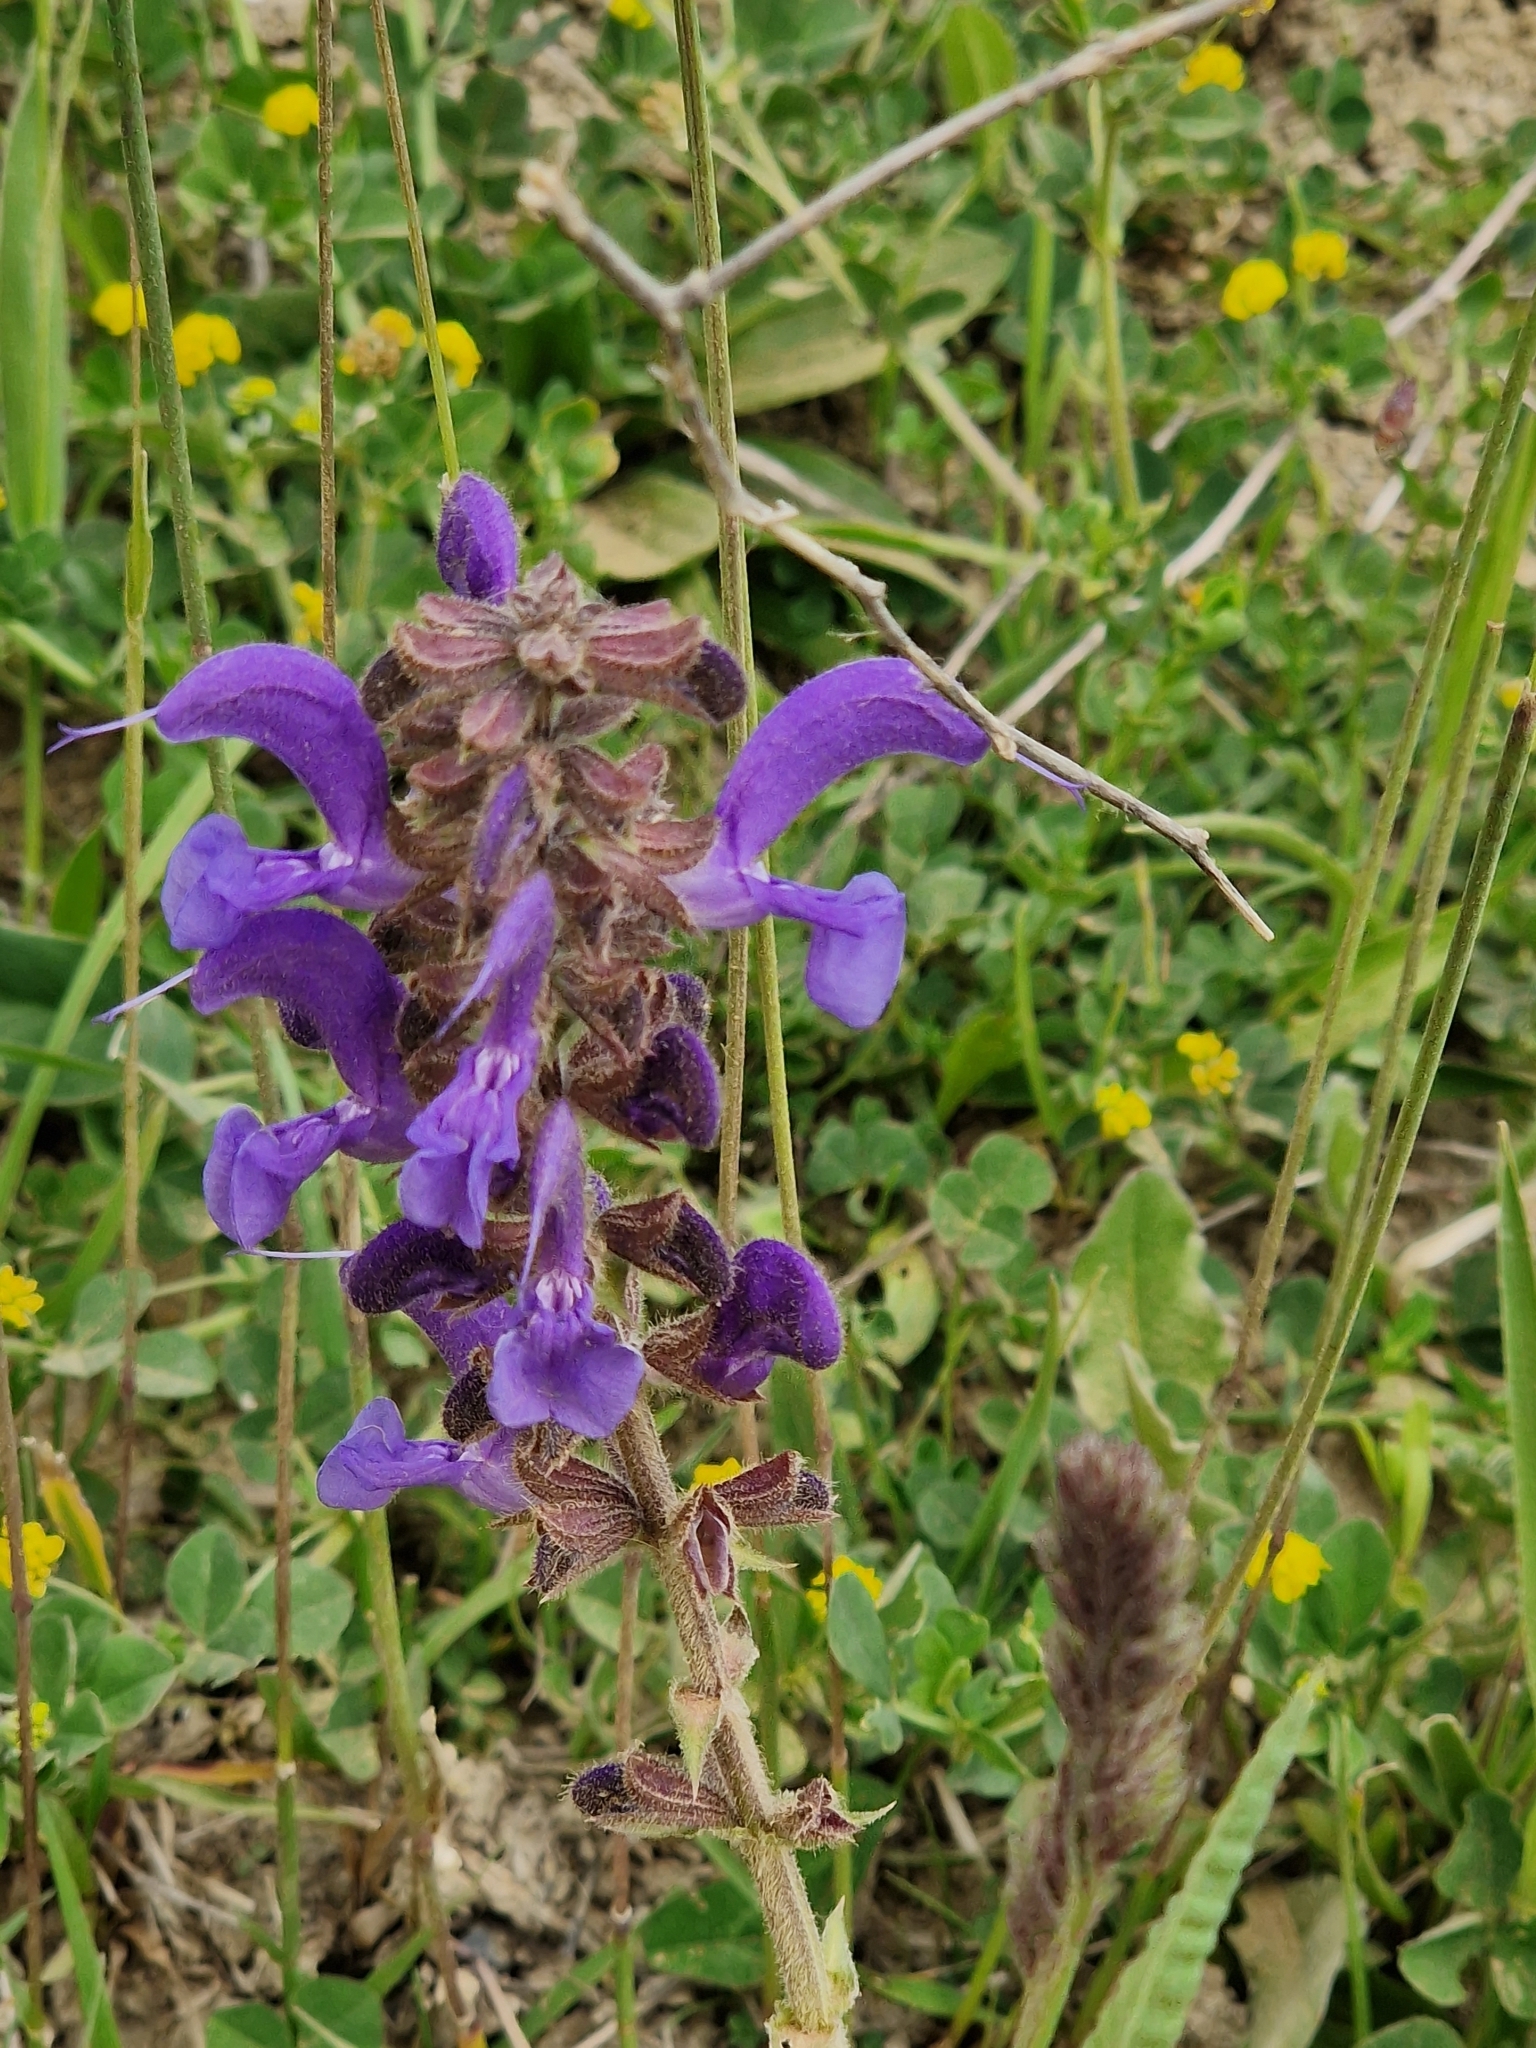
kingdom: Plantae
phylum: Tracheophyta
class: Magnoliopsida
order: Lamiales
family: Lamiaceae
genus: Salvia
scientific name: Salvia pratensis
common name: Meadow sage
